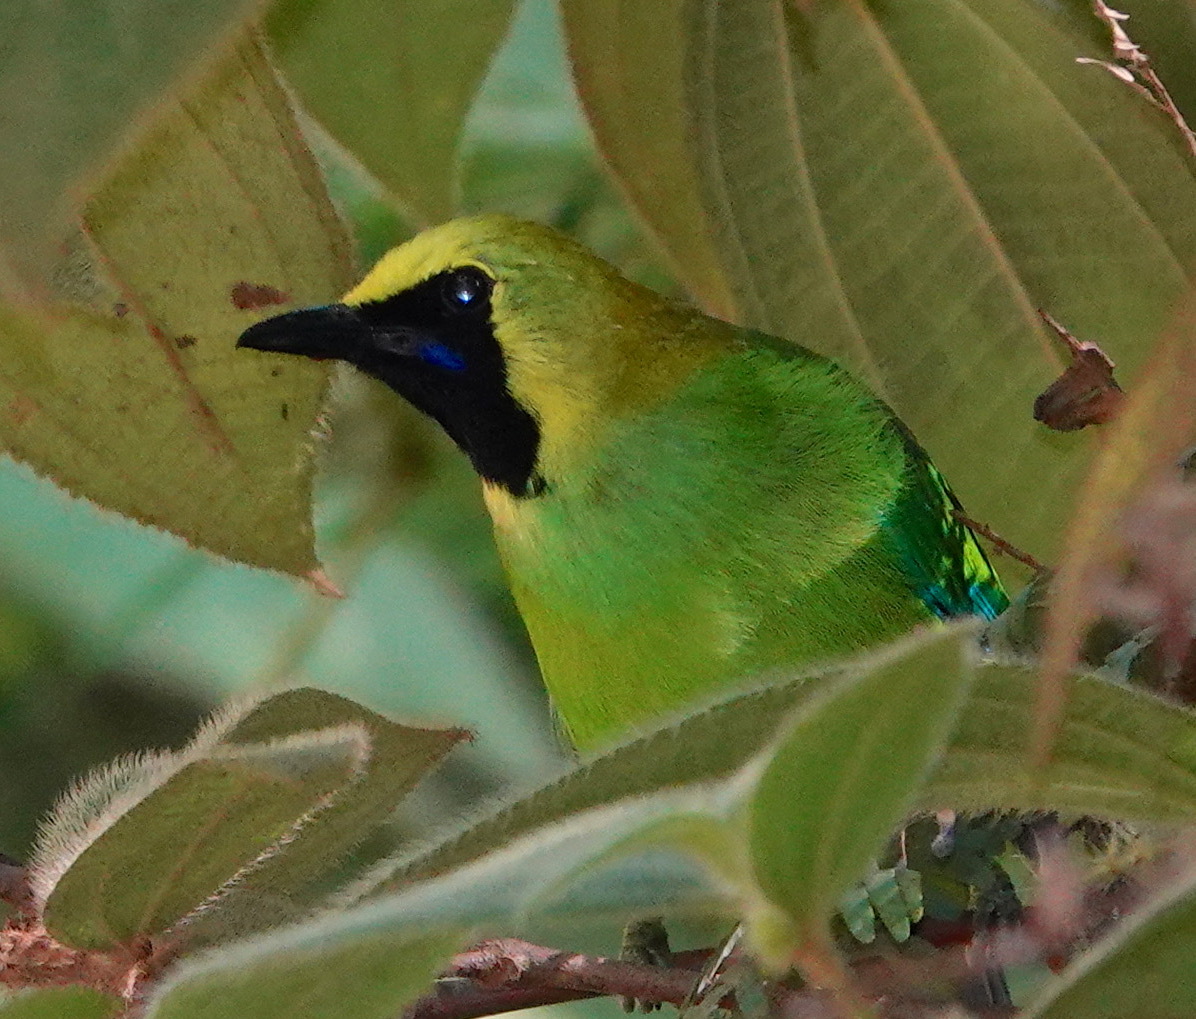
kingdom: Animalia
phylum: Chordata
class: Aves
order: Passeriformes
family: Chloropseidae
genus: Chloropsis
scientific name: Chloropsis moluccensis
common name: Blue-winged leafbird
